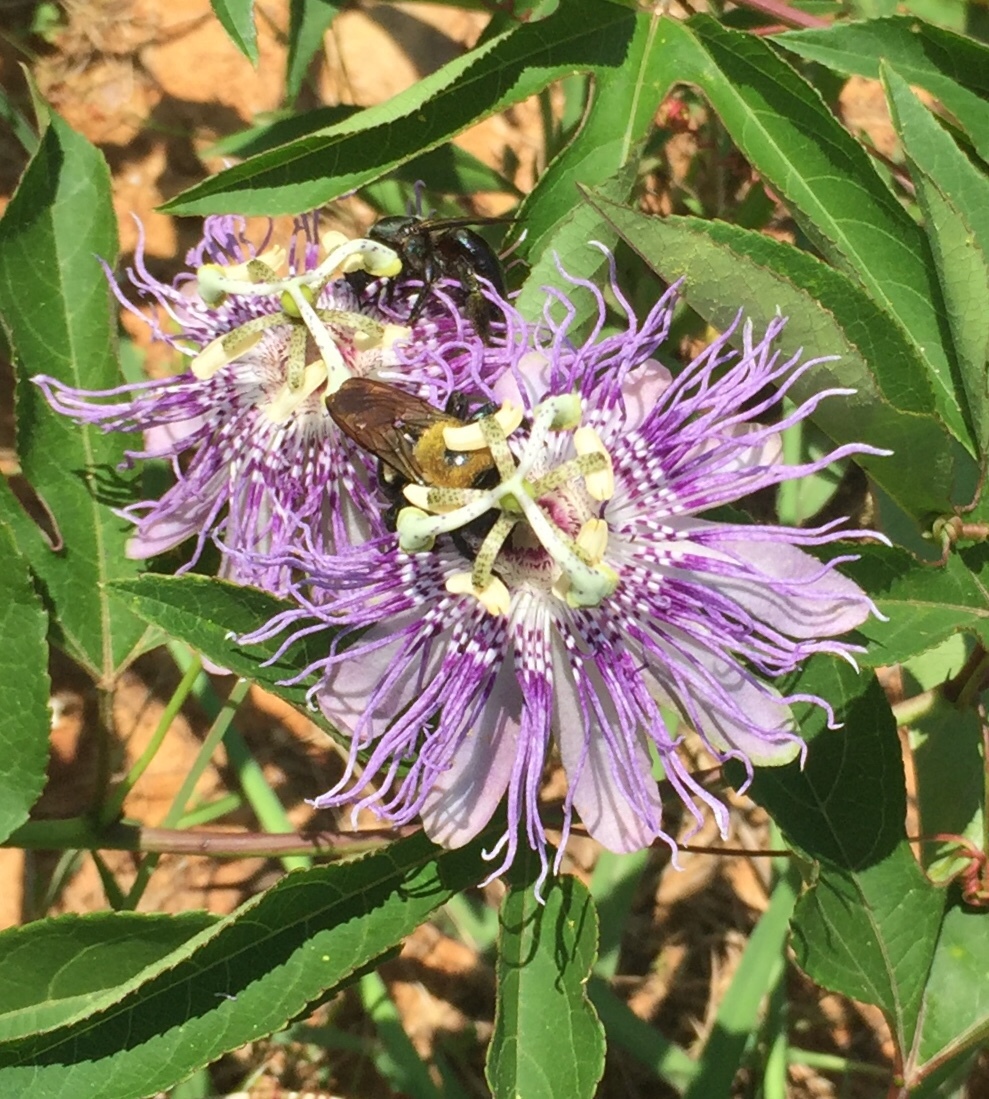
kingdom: Plantae
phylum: Tracheophyta
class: Magnoliopsida
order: Malpighiales
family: Passifloraceae
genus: Passiflora
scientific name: Passiflora incarnata
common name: Apricot-vine
